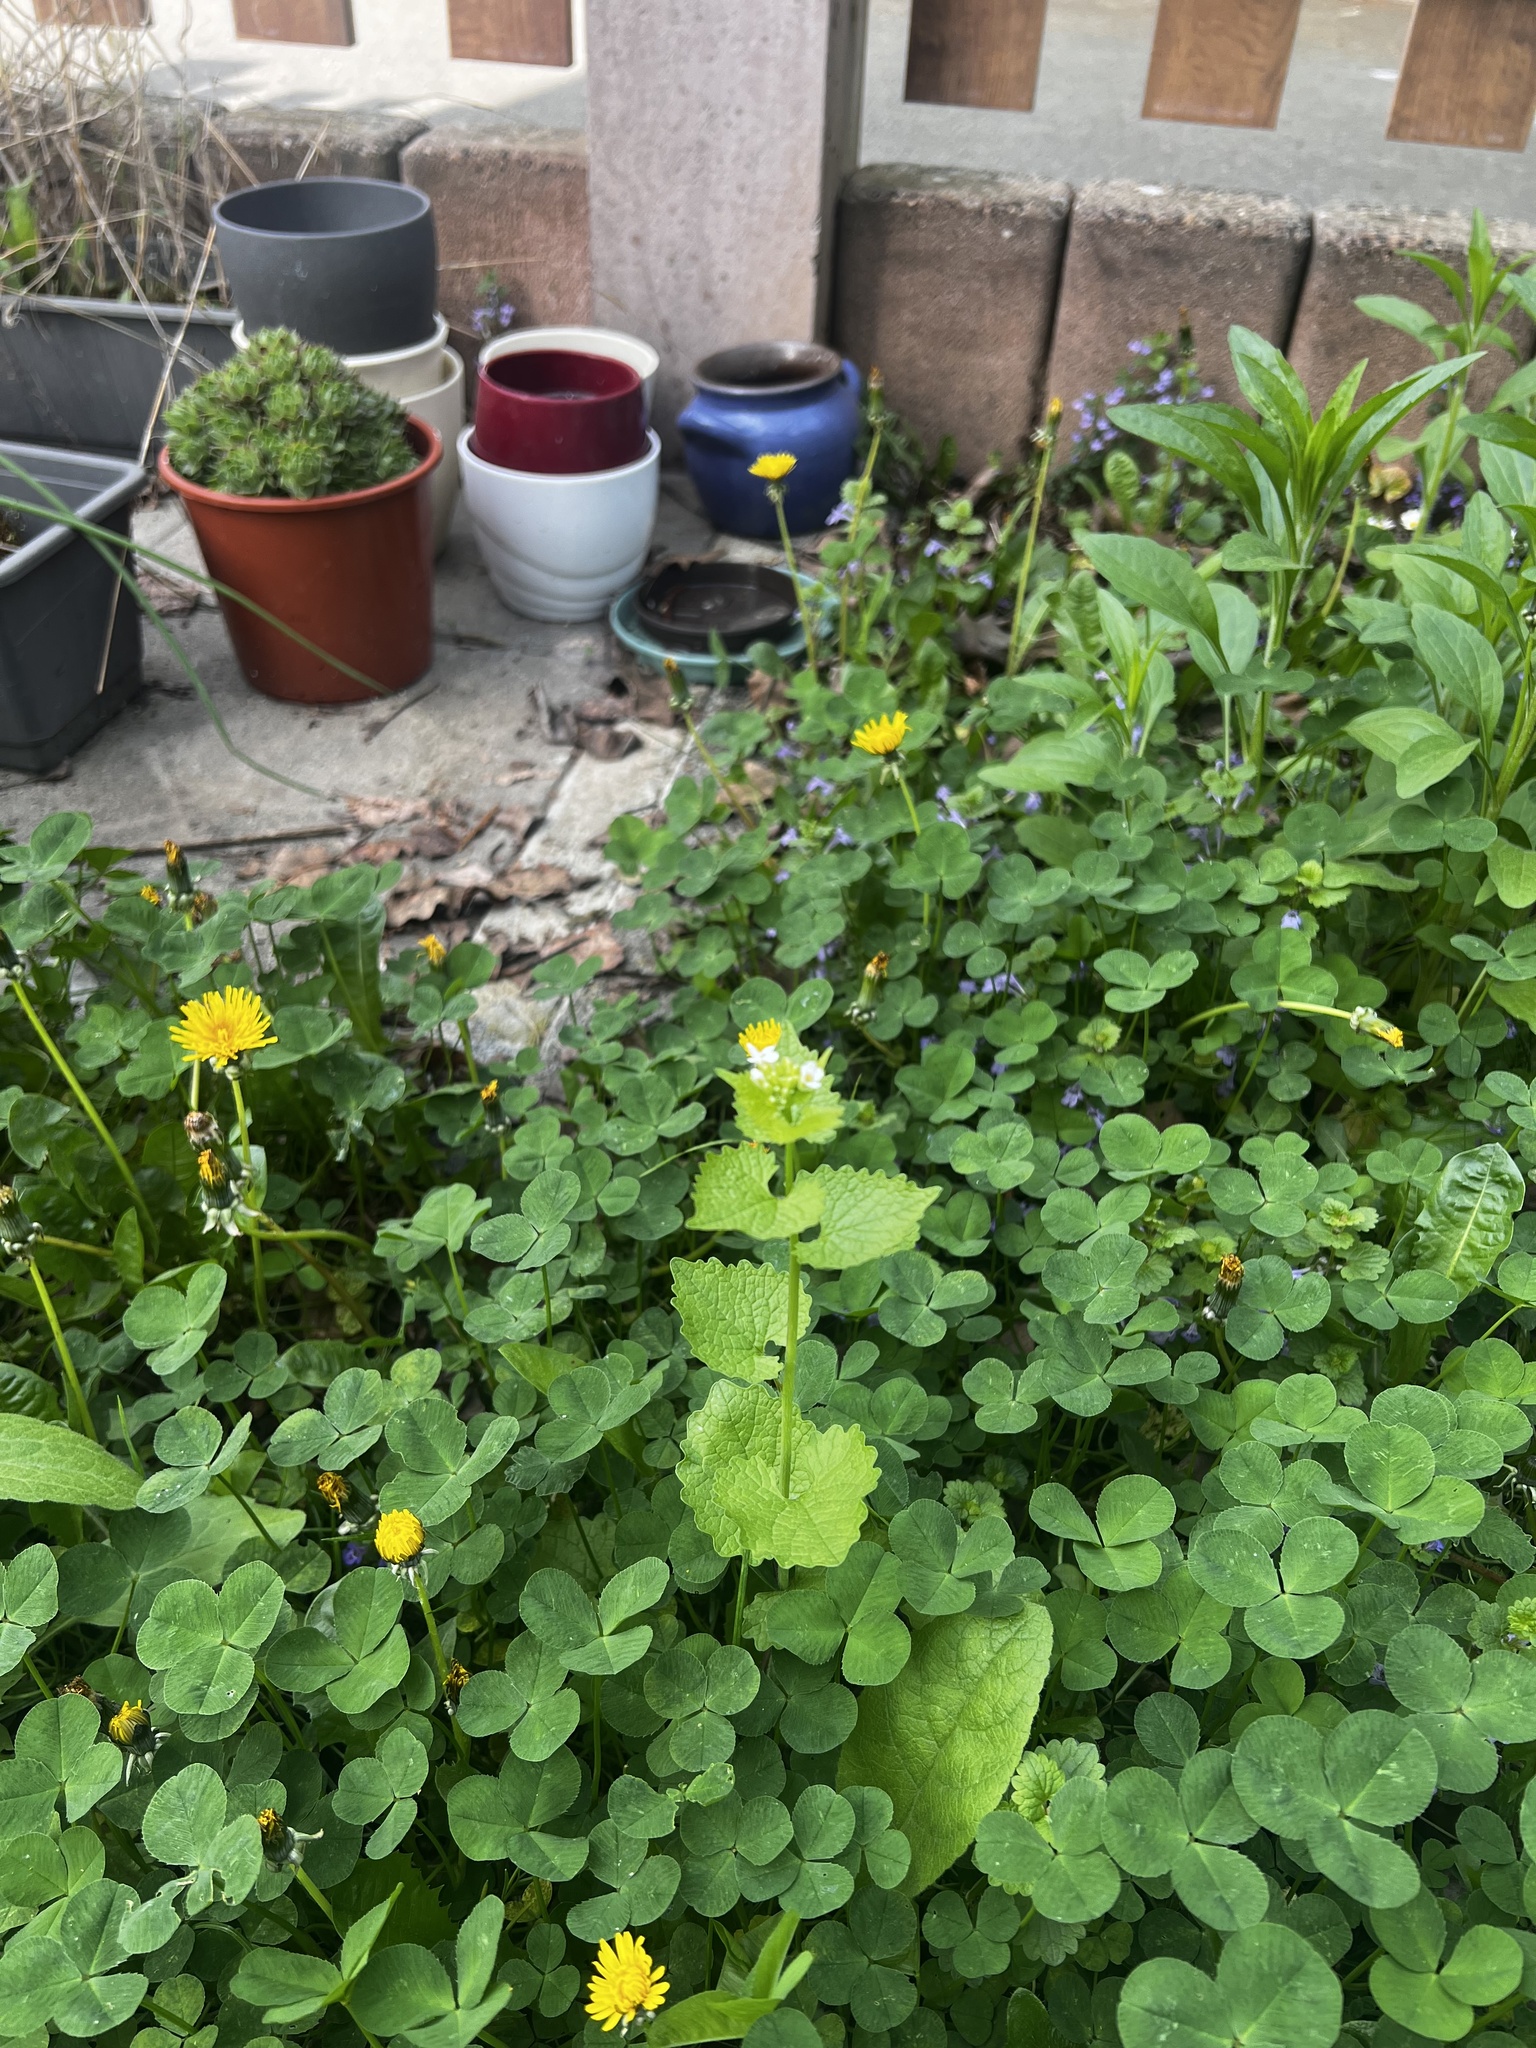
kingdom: Plantae
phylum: Tracheophyta
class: Magnoliopsida
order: Brassicales
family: Brassicaceae
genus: Alliaria
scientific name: Alliaria petiolata
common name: Garlic mustard
